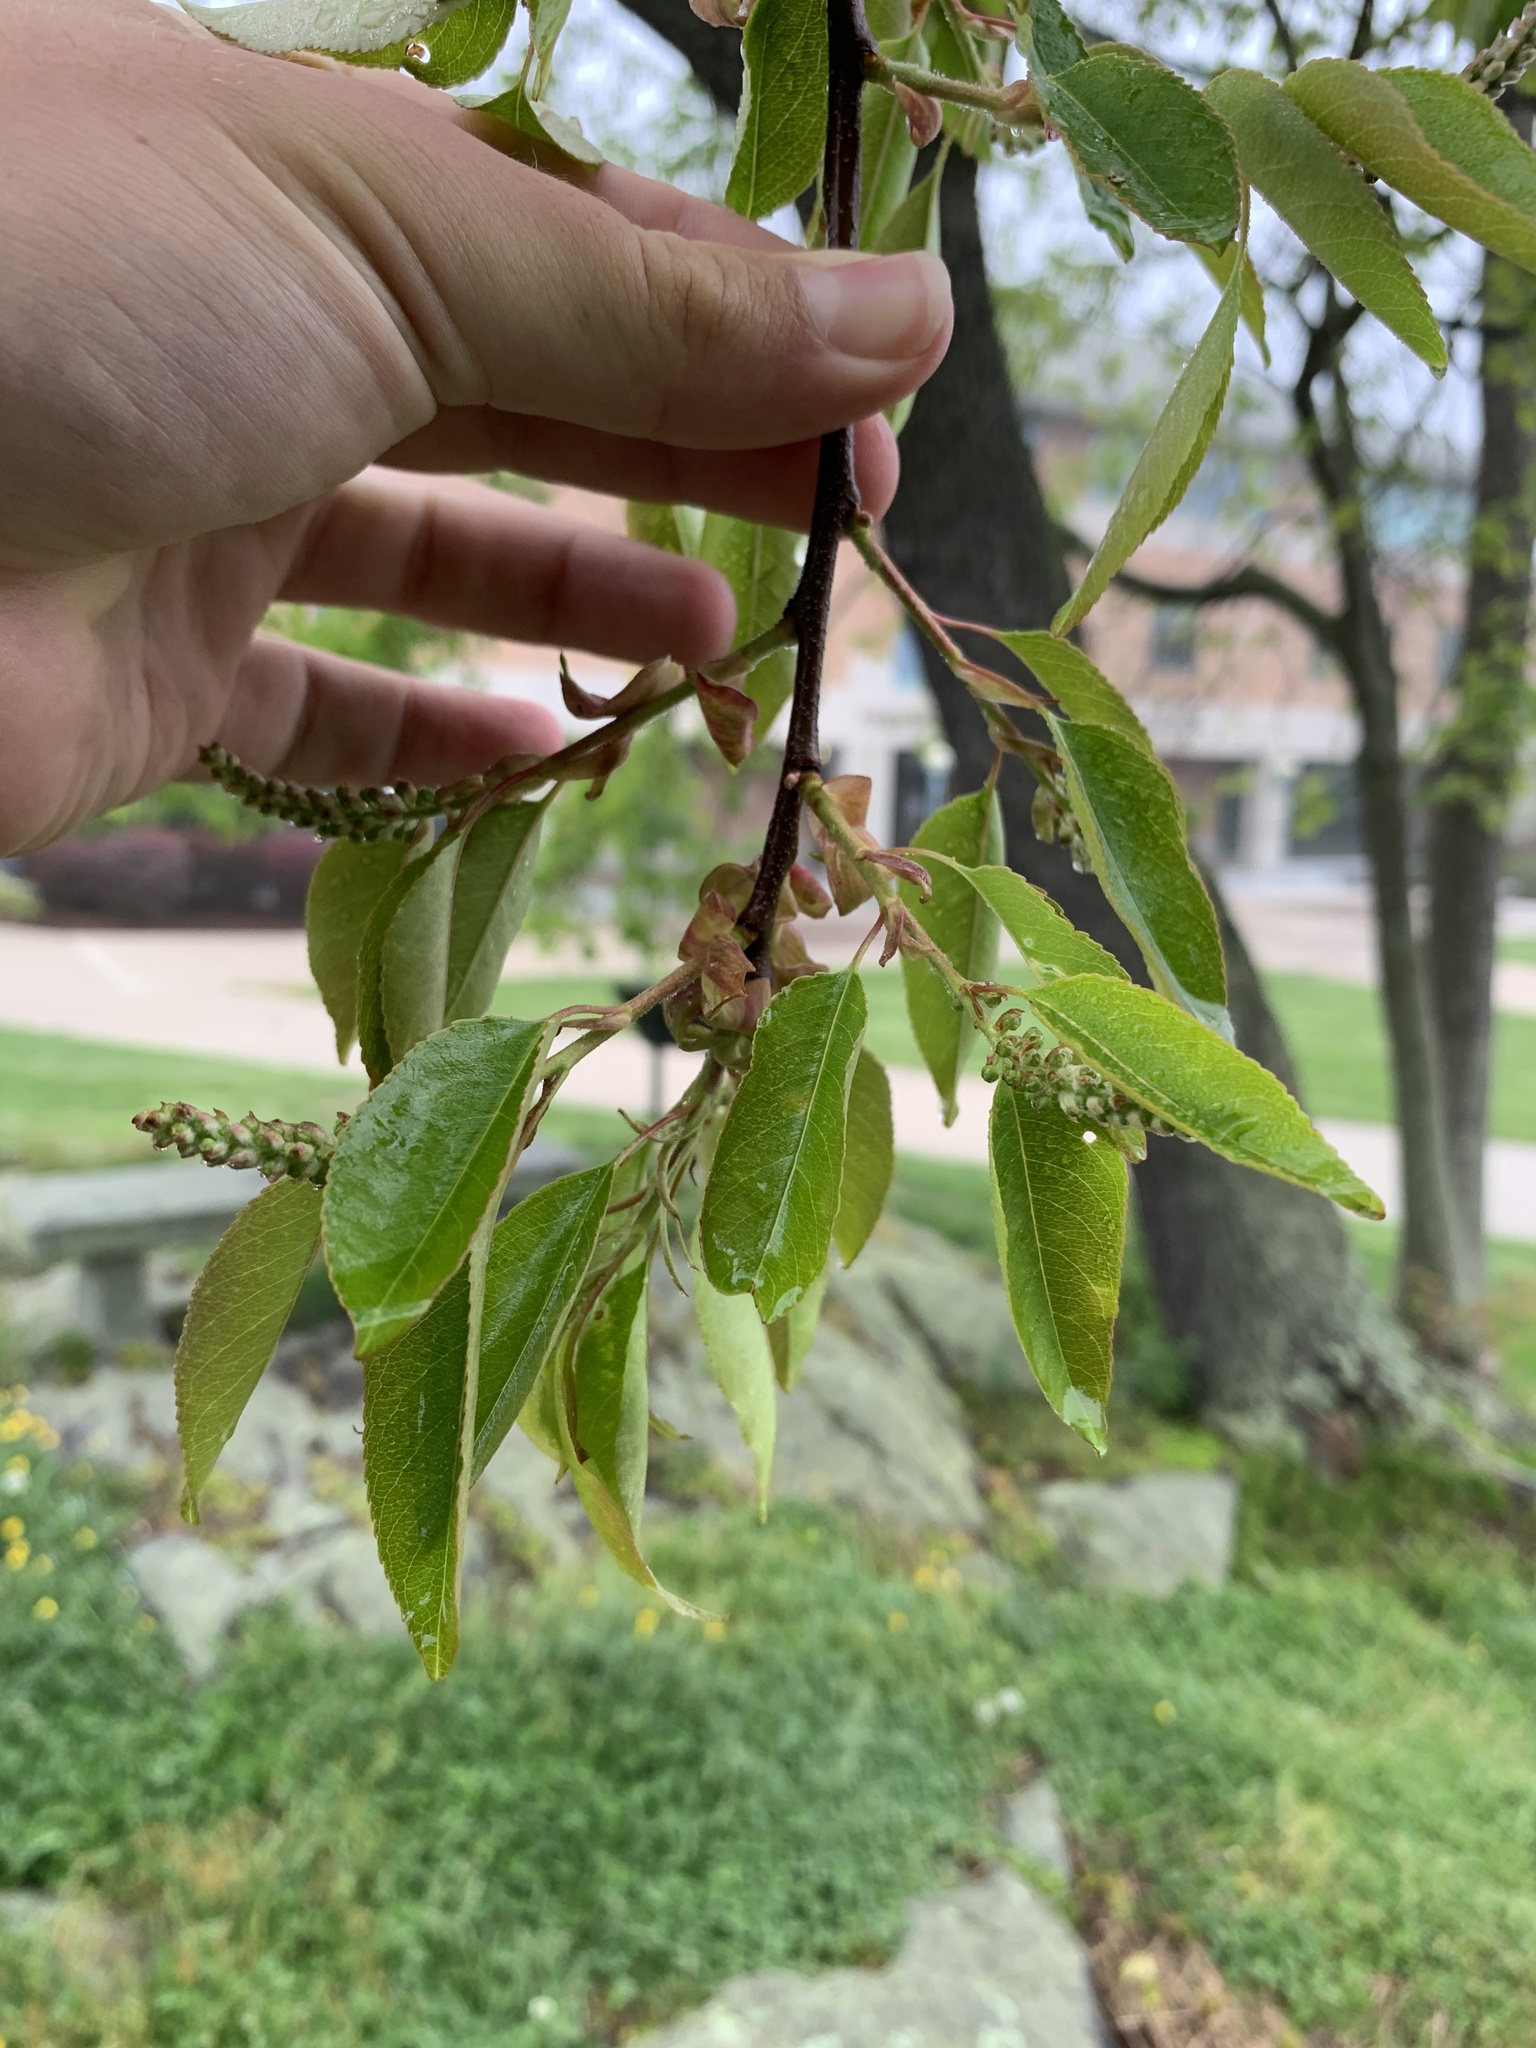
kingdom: Plantae
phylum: Tracheophyta
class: Magnoliopsida
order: Rosales
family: Rosaceae
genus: Prunus
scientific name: Prunus serotina
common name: Black cherry
